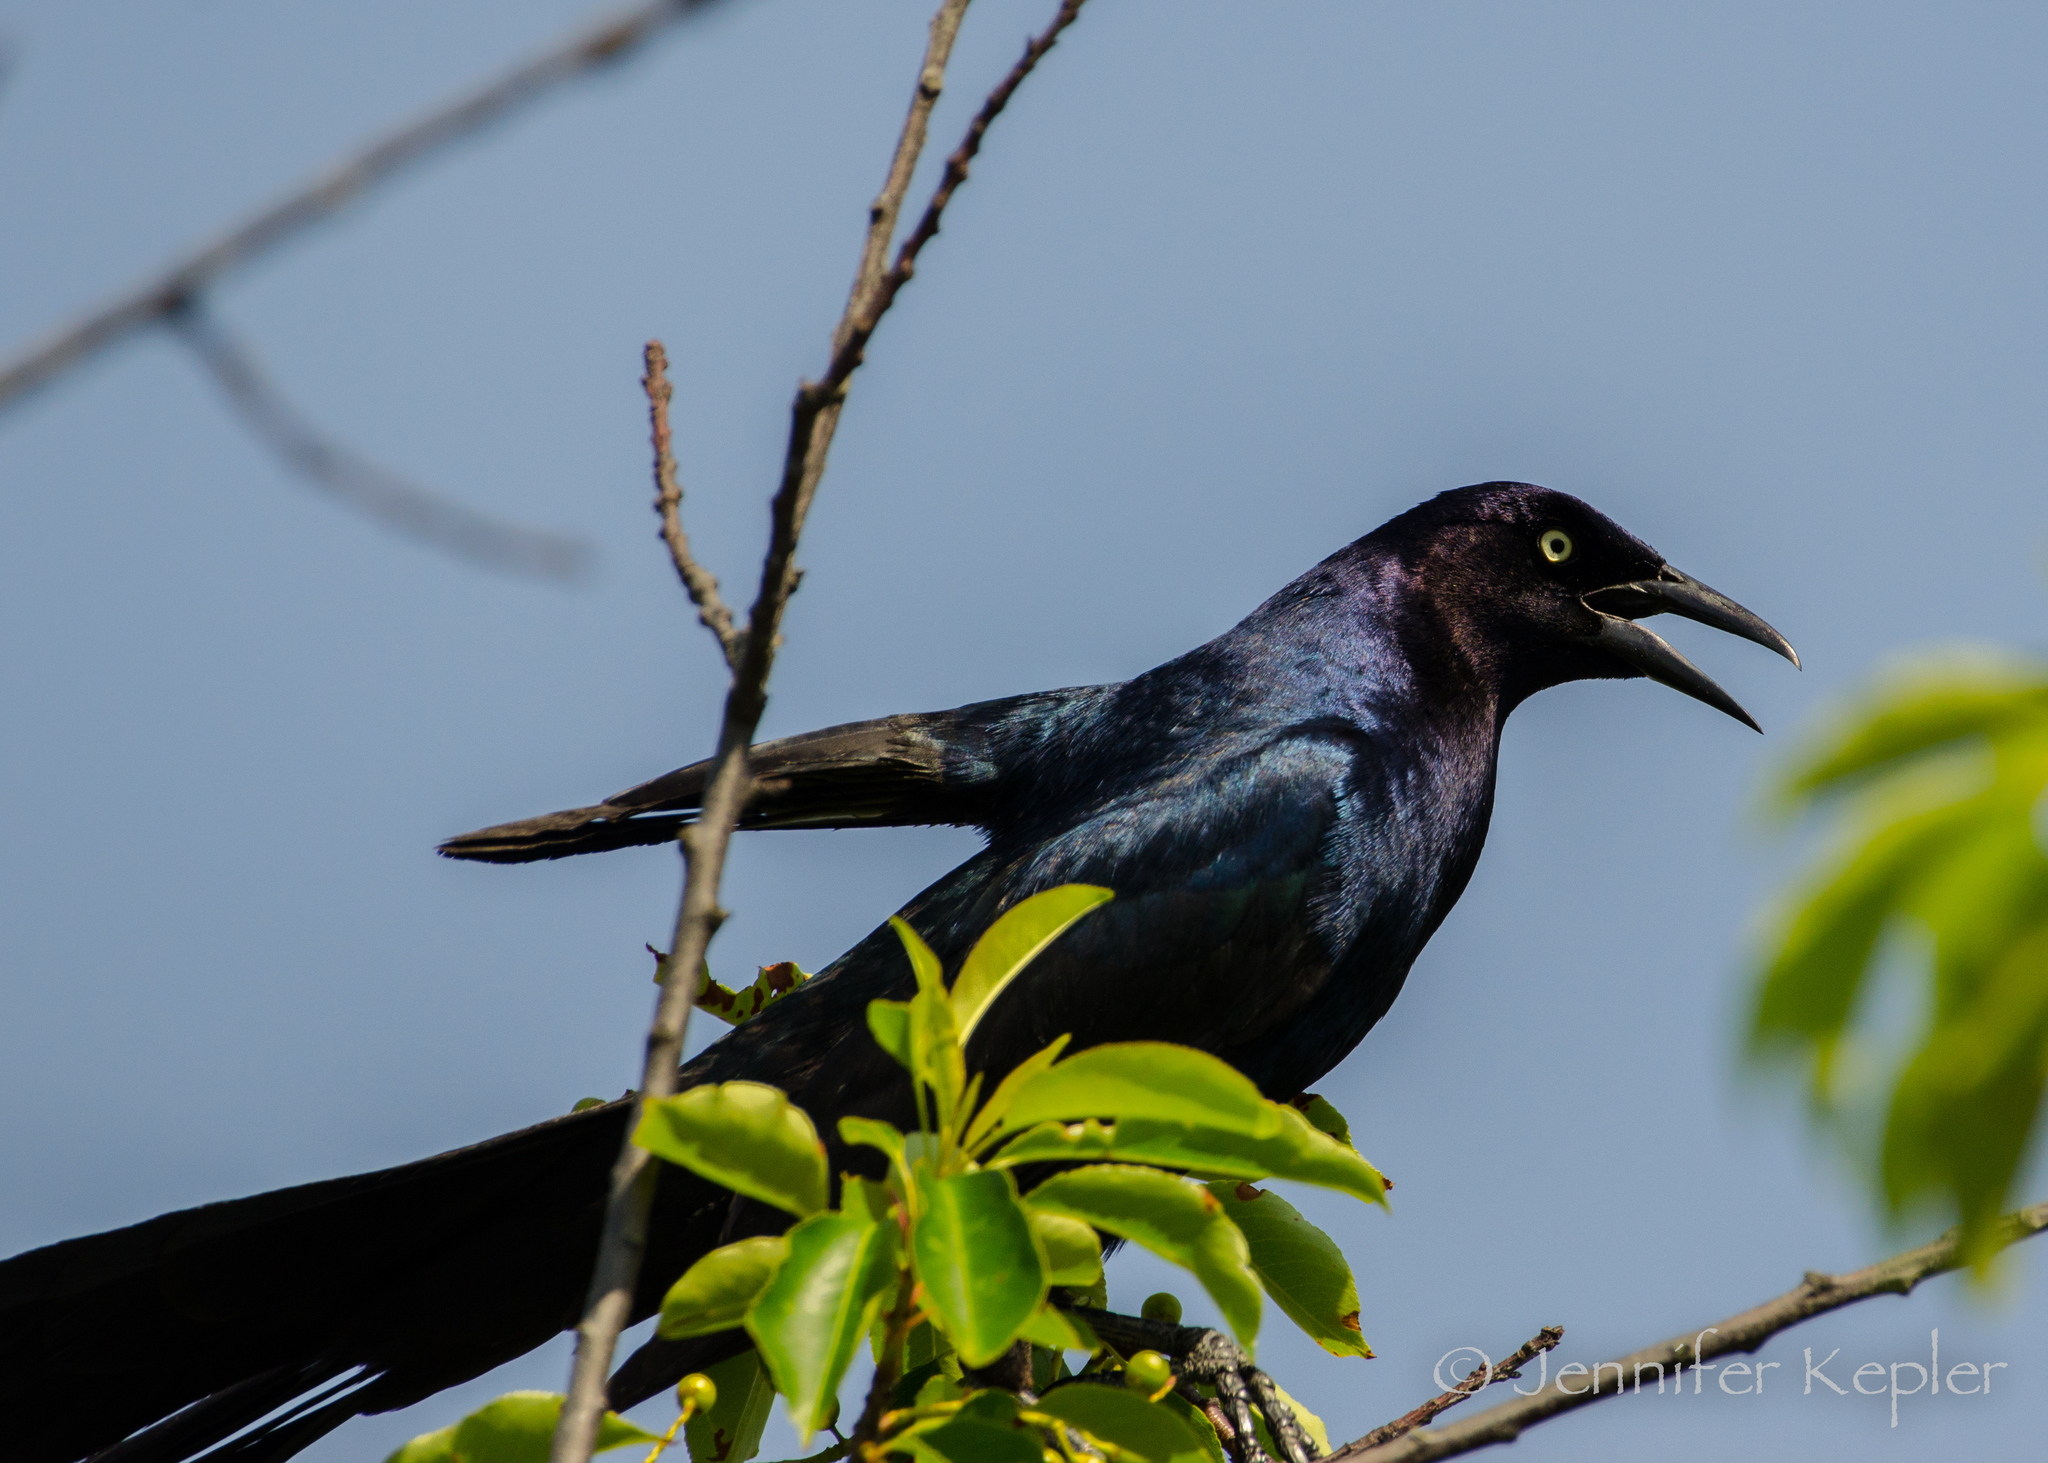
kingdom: Animalia
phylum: Chordata
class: Aves
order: Passeriformes
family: Icteridae
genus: Quiscalus
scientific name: Quiscalus major
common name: Boat-tailed grackle
